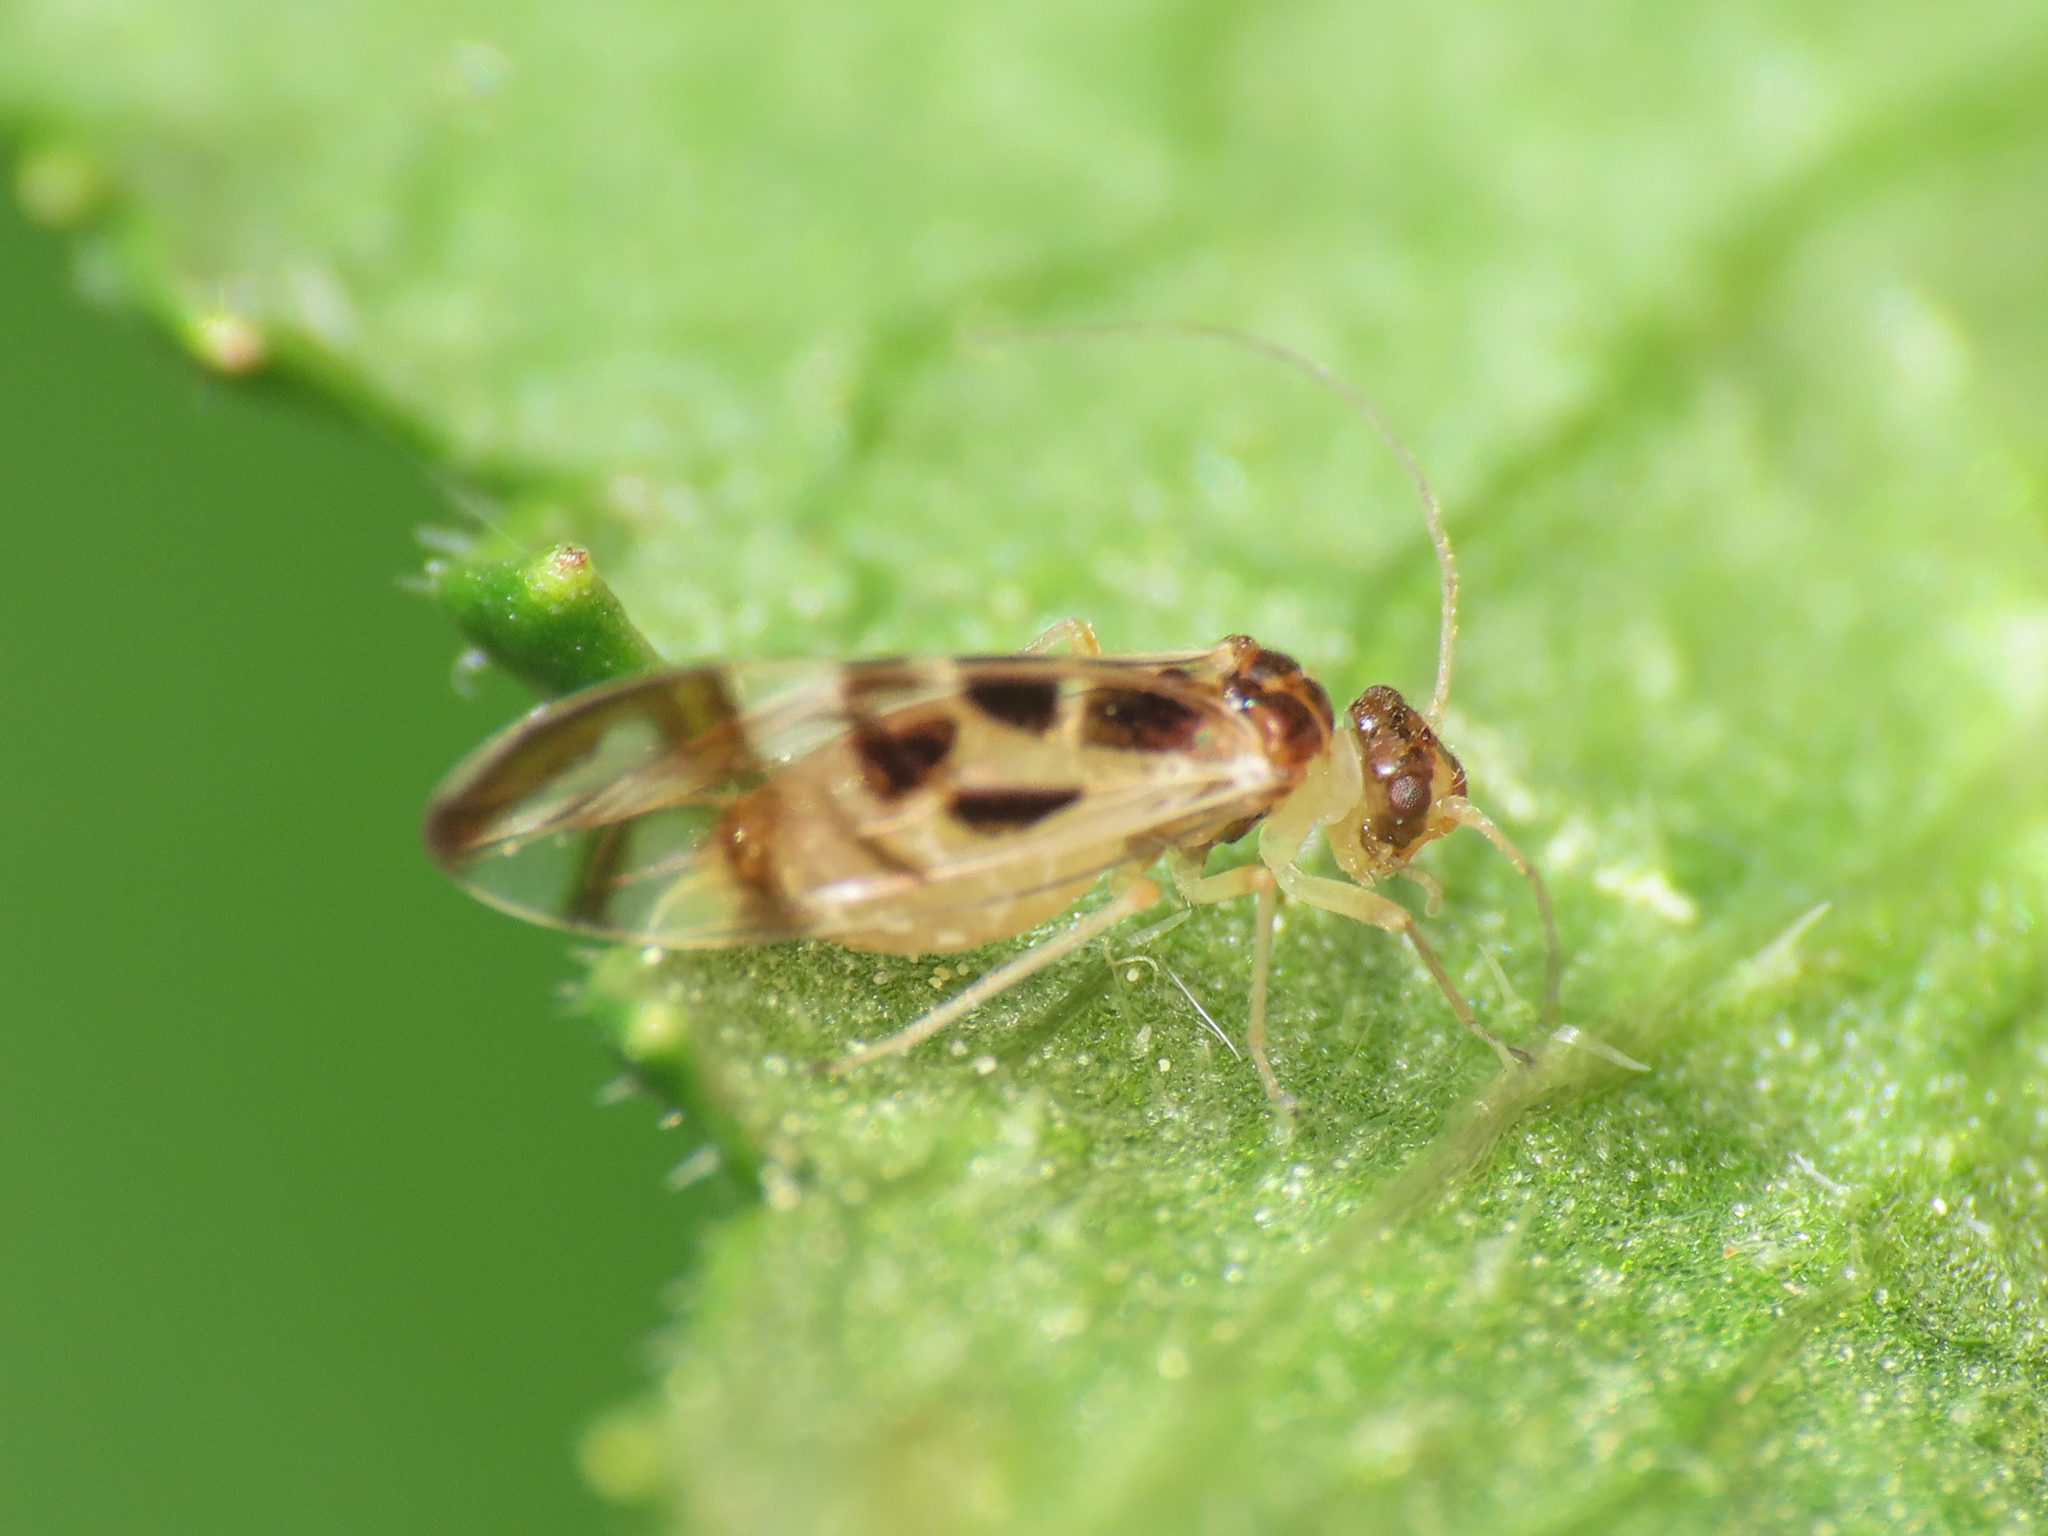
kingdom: Animalia
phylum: Arthropoda
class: Insecta
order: Psocodea
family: Stenopsocidae
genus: Graphopsocus
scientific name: Graphopsocus cruciatus
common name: Lizard bark louse
